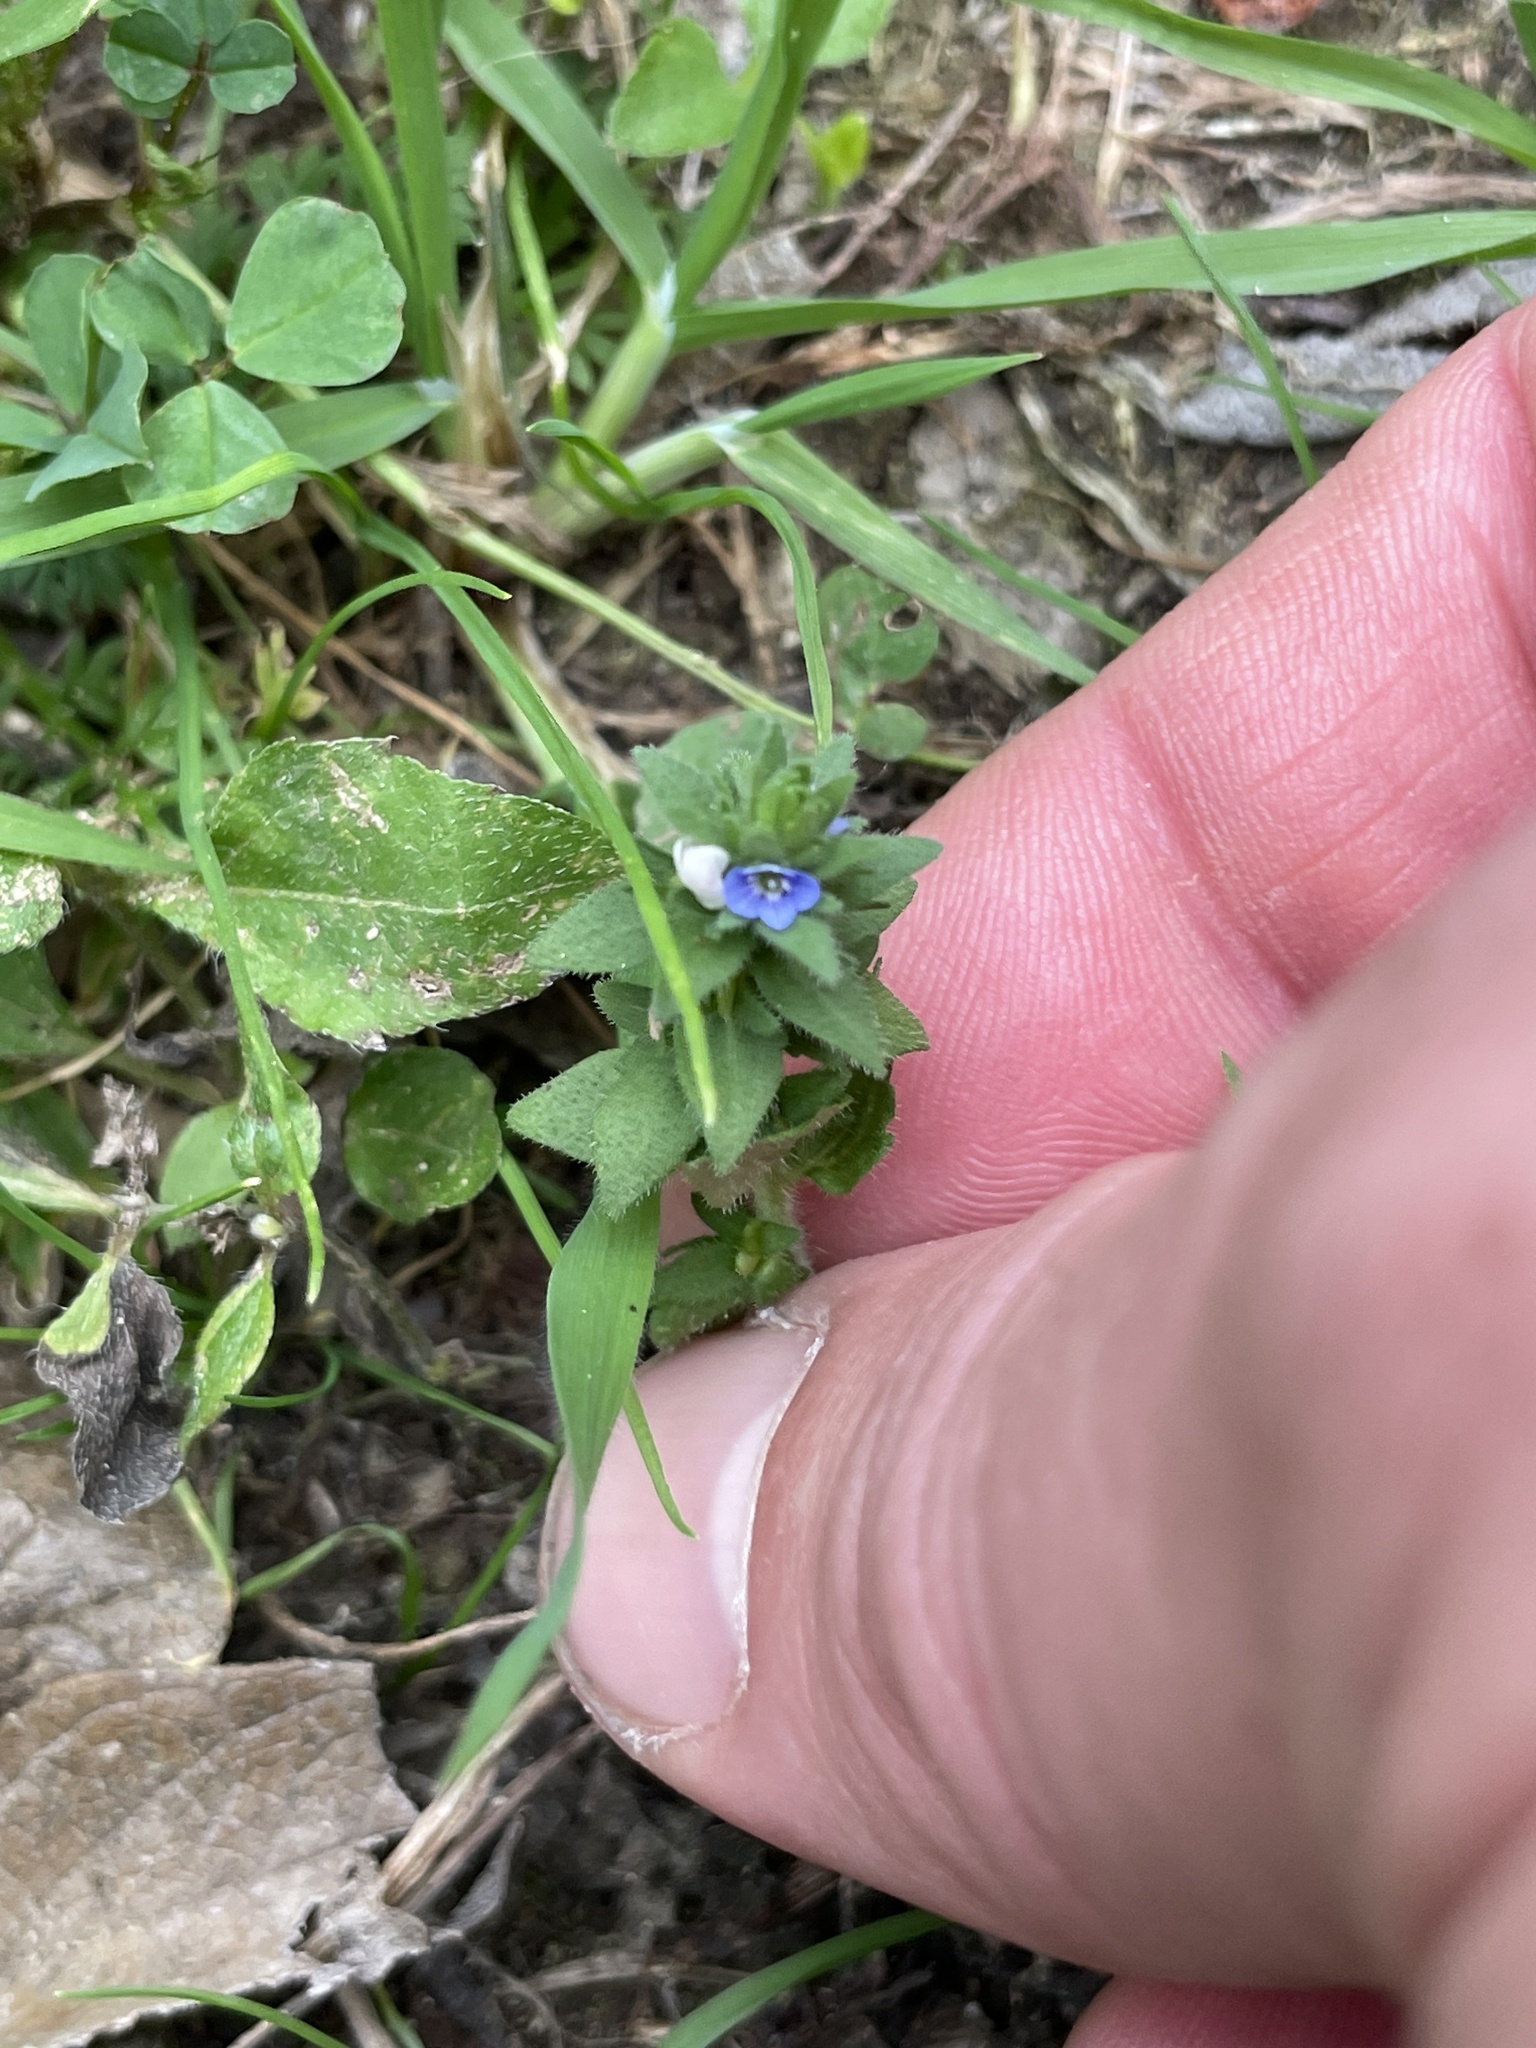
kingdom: Plantae
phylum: Tracheophyta
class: Magnoliopsida
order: Lamiales
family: Plantaginaceae
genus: Veronica
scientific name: Veronica arvensis
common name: Corn speedwell
